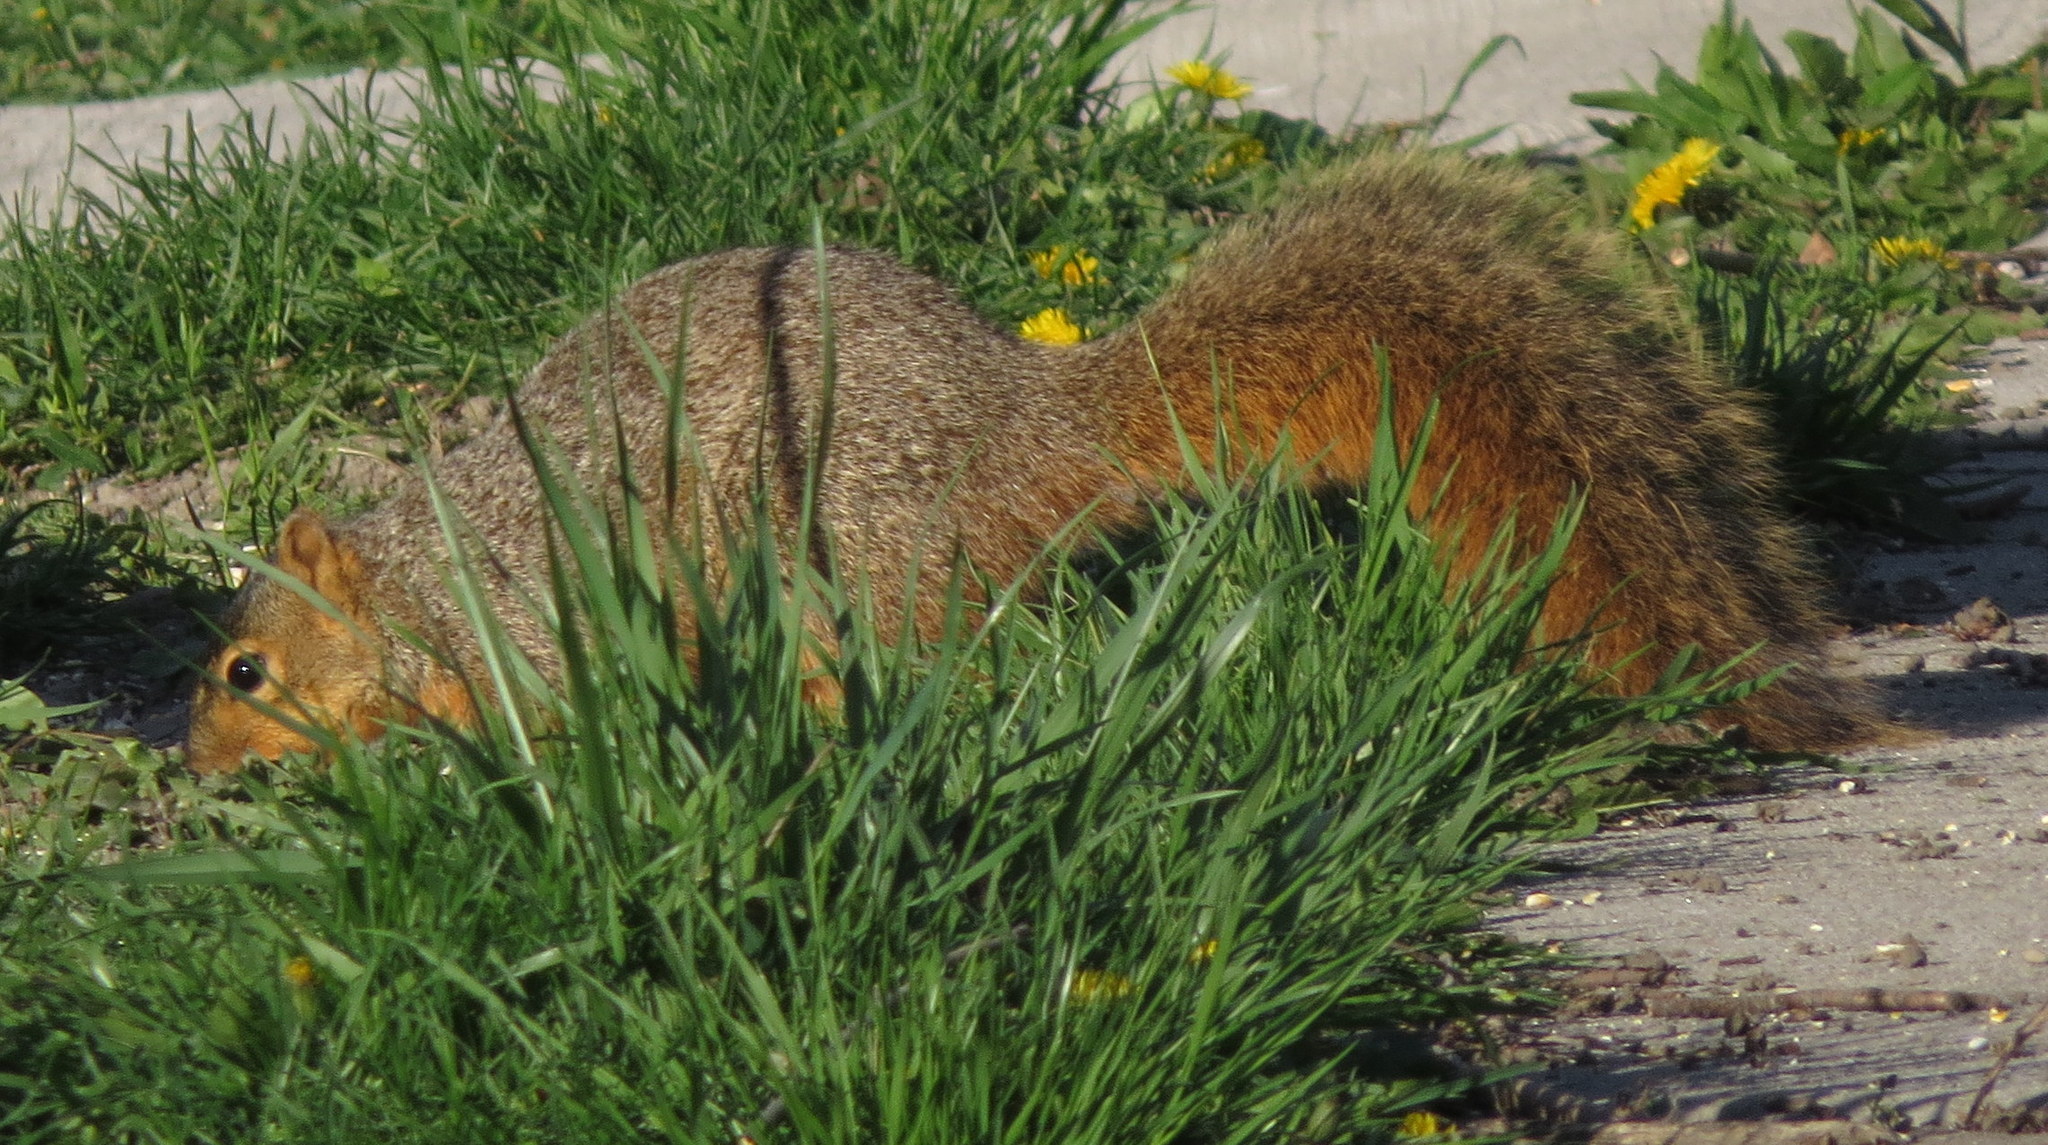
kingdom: Animalia
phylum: Chordata
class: Mammalia
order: Rodentia
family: Sciuridae
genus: Sciurus
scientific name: Sciurus niger
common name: Fox squirrel
